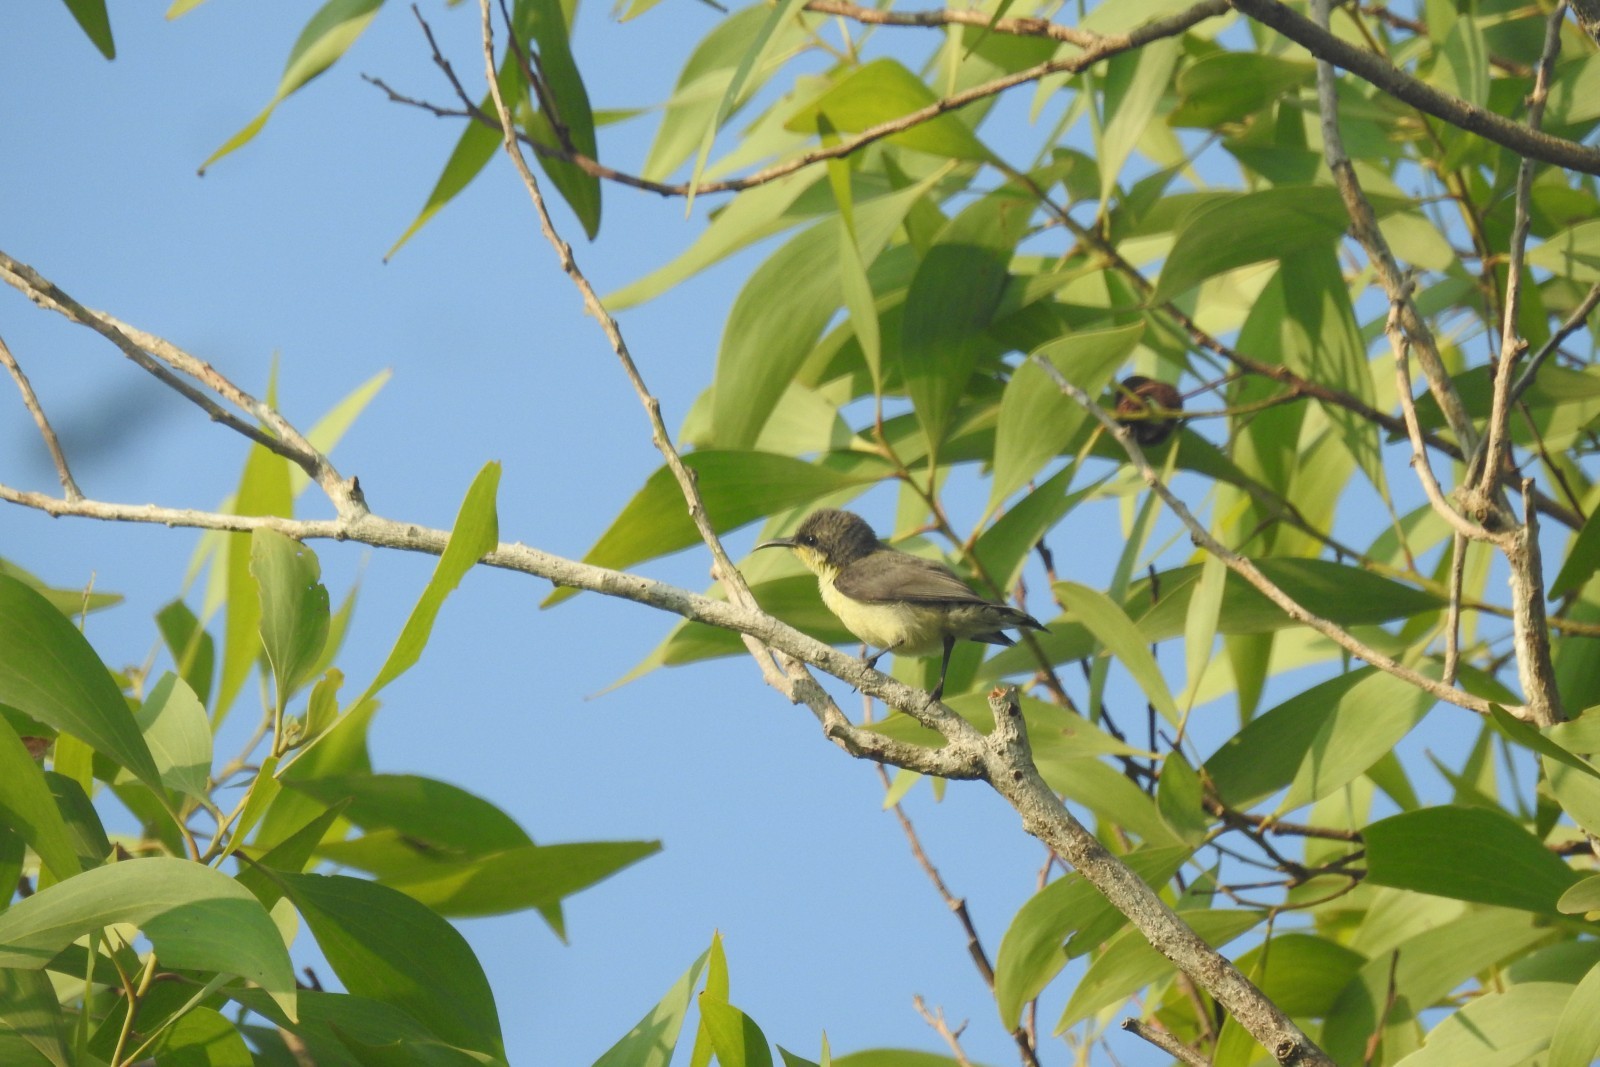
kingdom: Animalia
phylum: Chordata
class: Aves
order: Passeriformes
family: Nectariniidae
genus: Cinnyris
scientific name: Cinnyris asiaticus
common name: Purple sunbird
